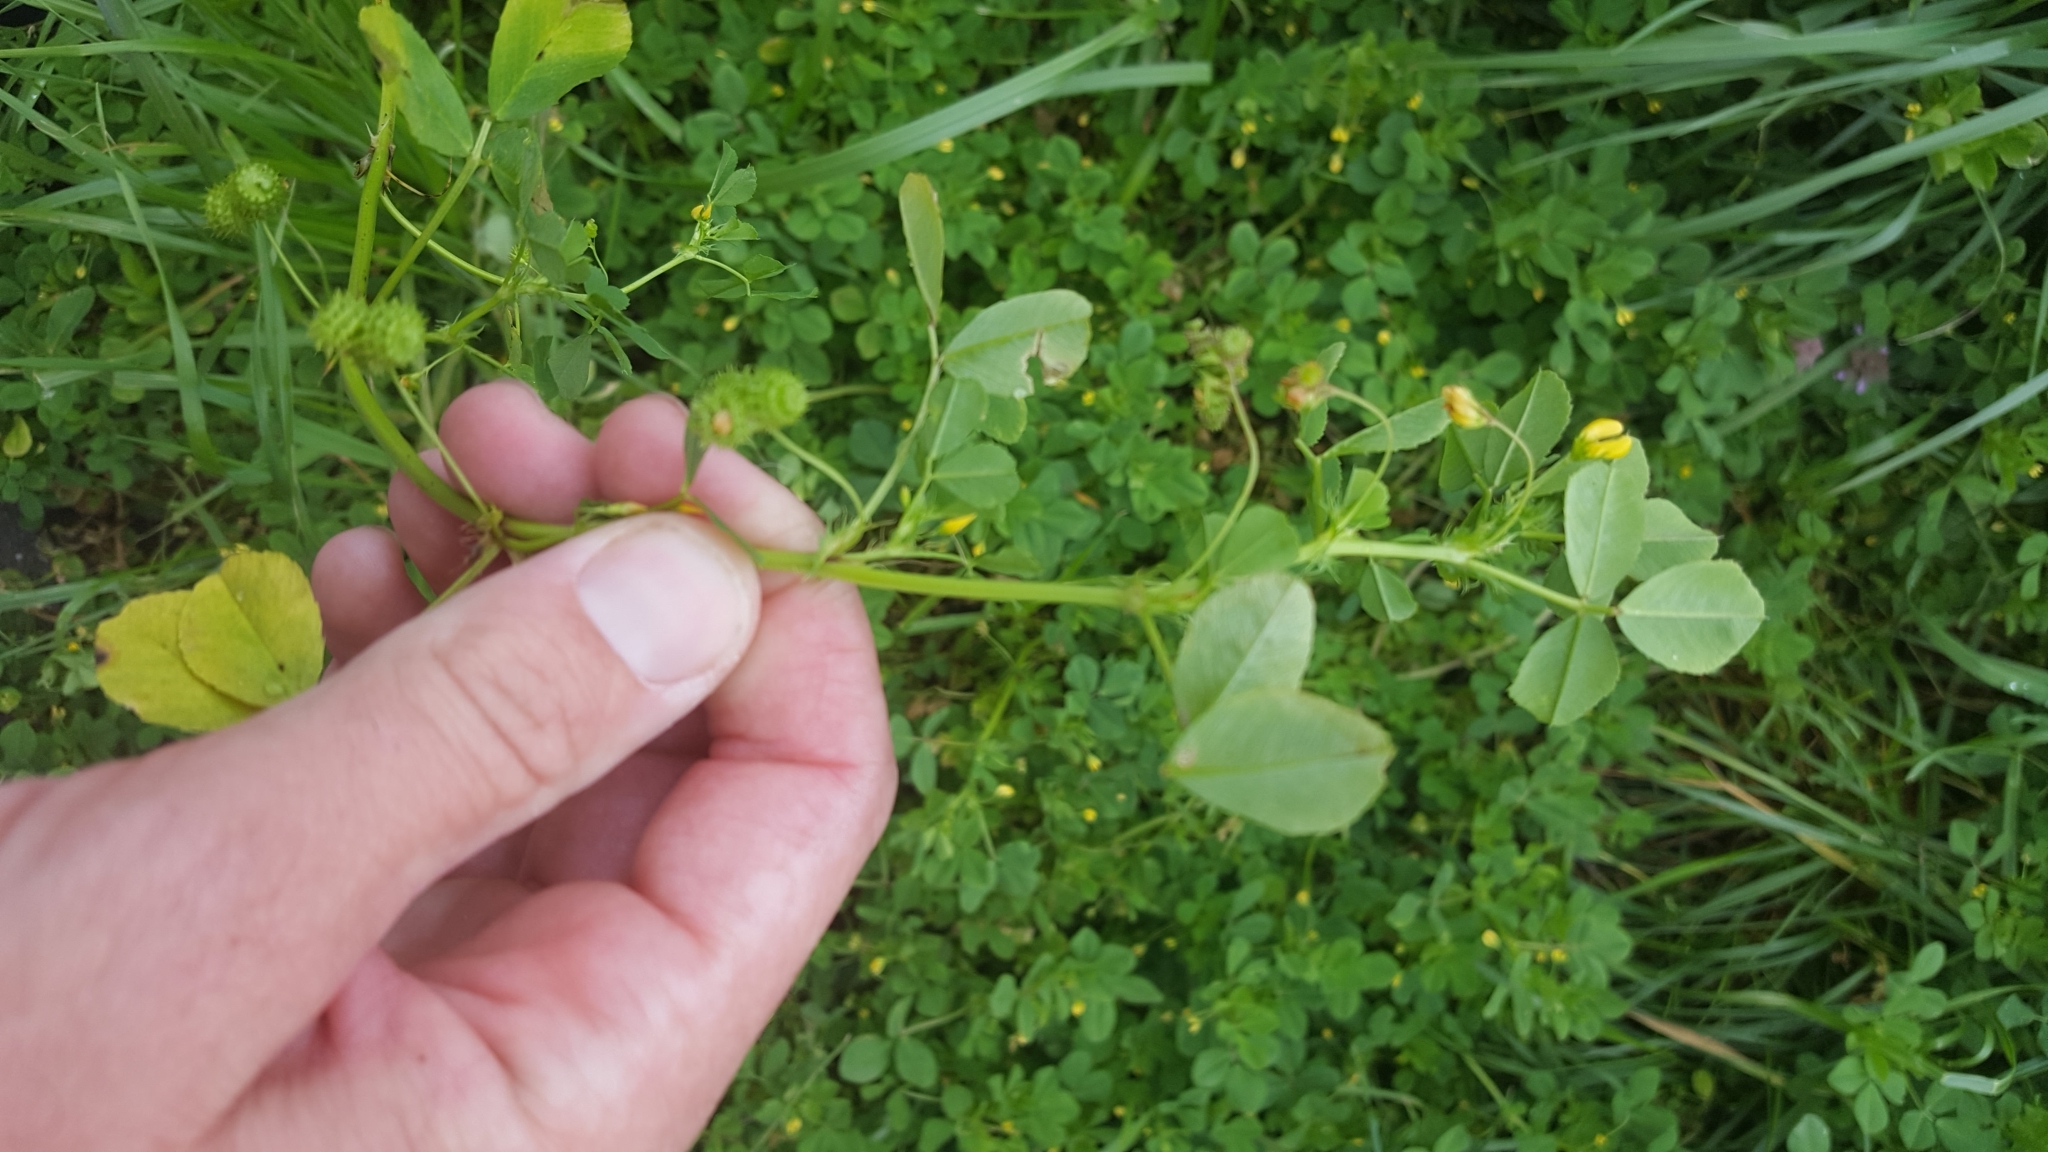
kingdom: Plantae
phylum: Tracheophyta
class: Magnoliopsida
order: Fabales
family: Fabaceae
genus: Medicago
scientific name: Medicago polymorpha
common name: Burclover
